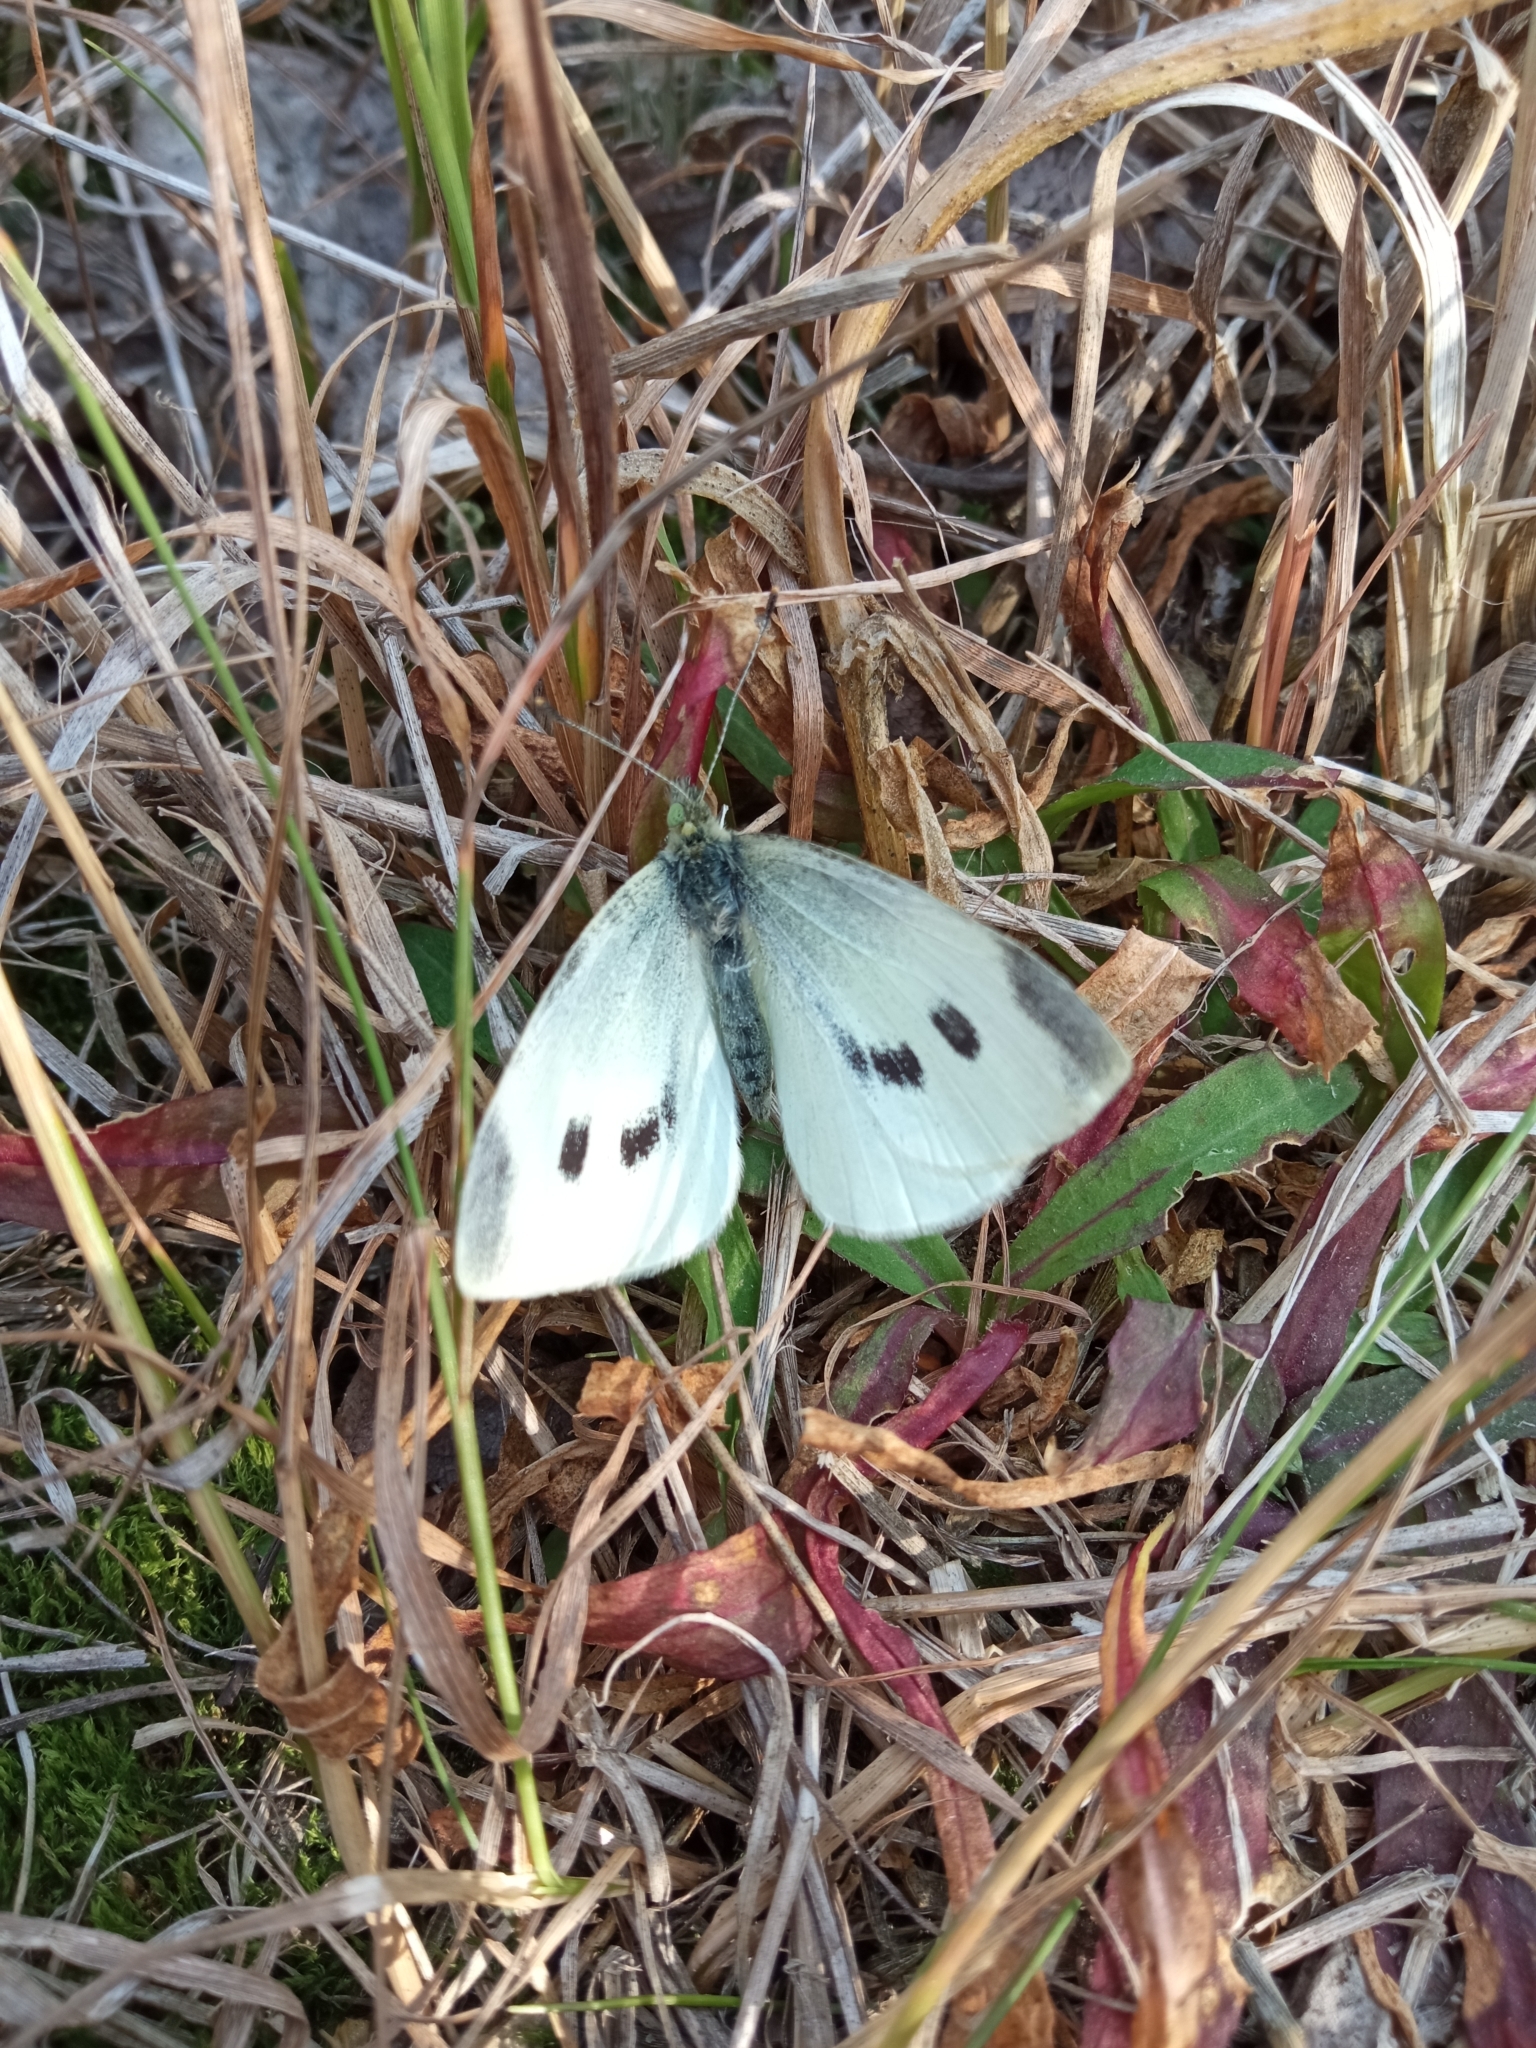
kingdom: Animalia
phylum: Arthropoda
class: Insecta
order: Lepidoptera
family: Pieridae
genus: Pieris
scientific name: Pieris rapae
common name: Small white
